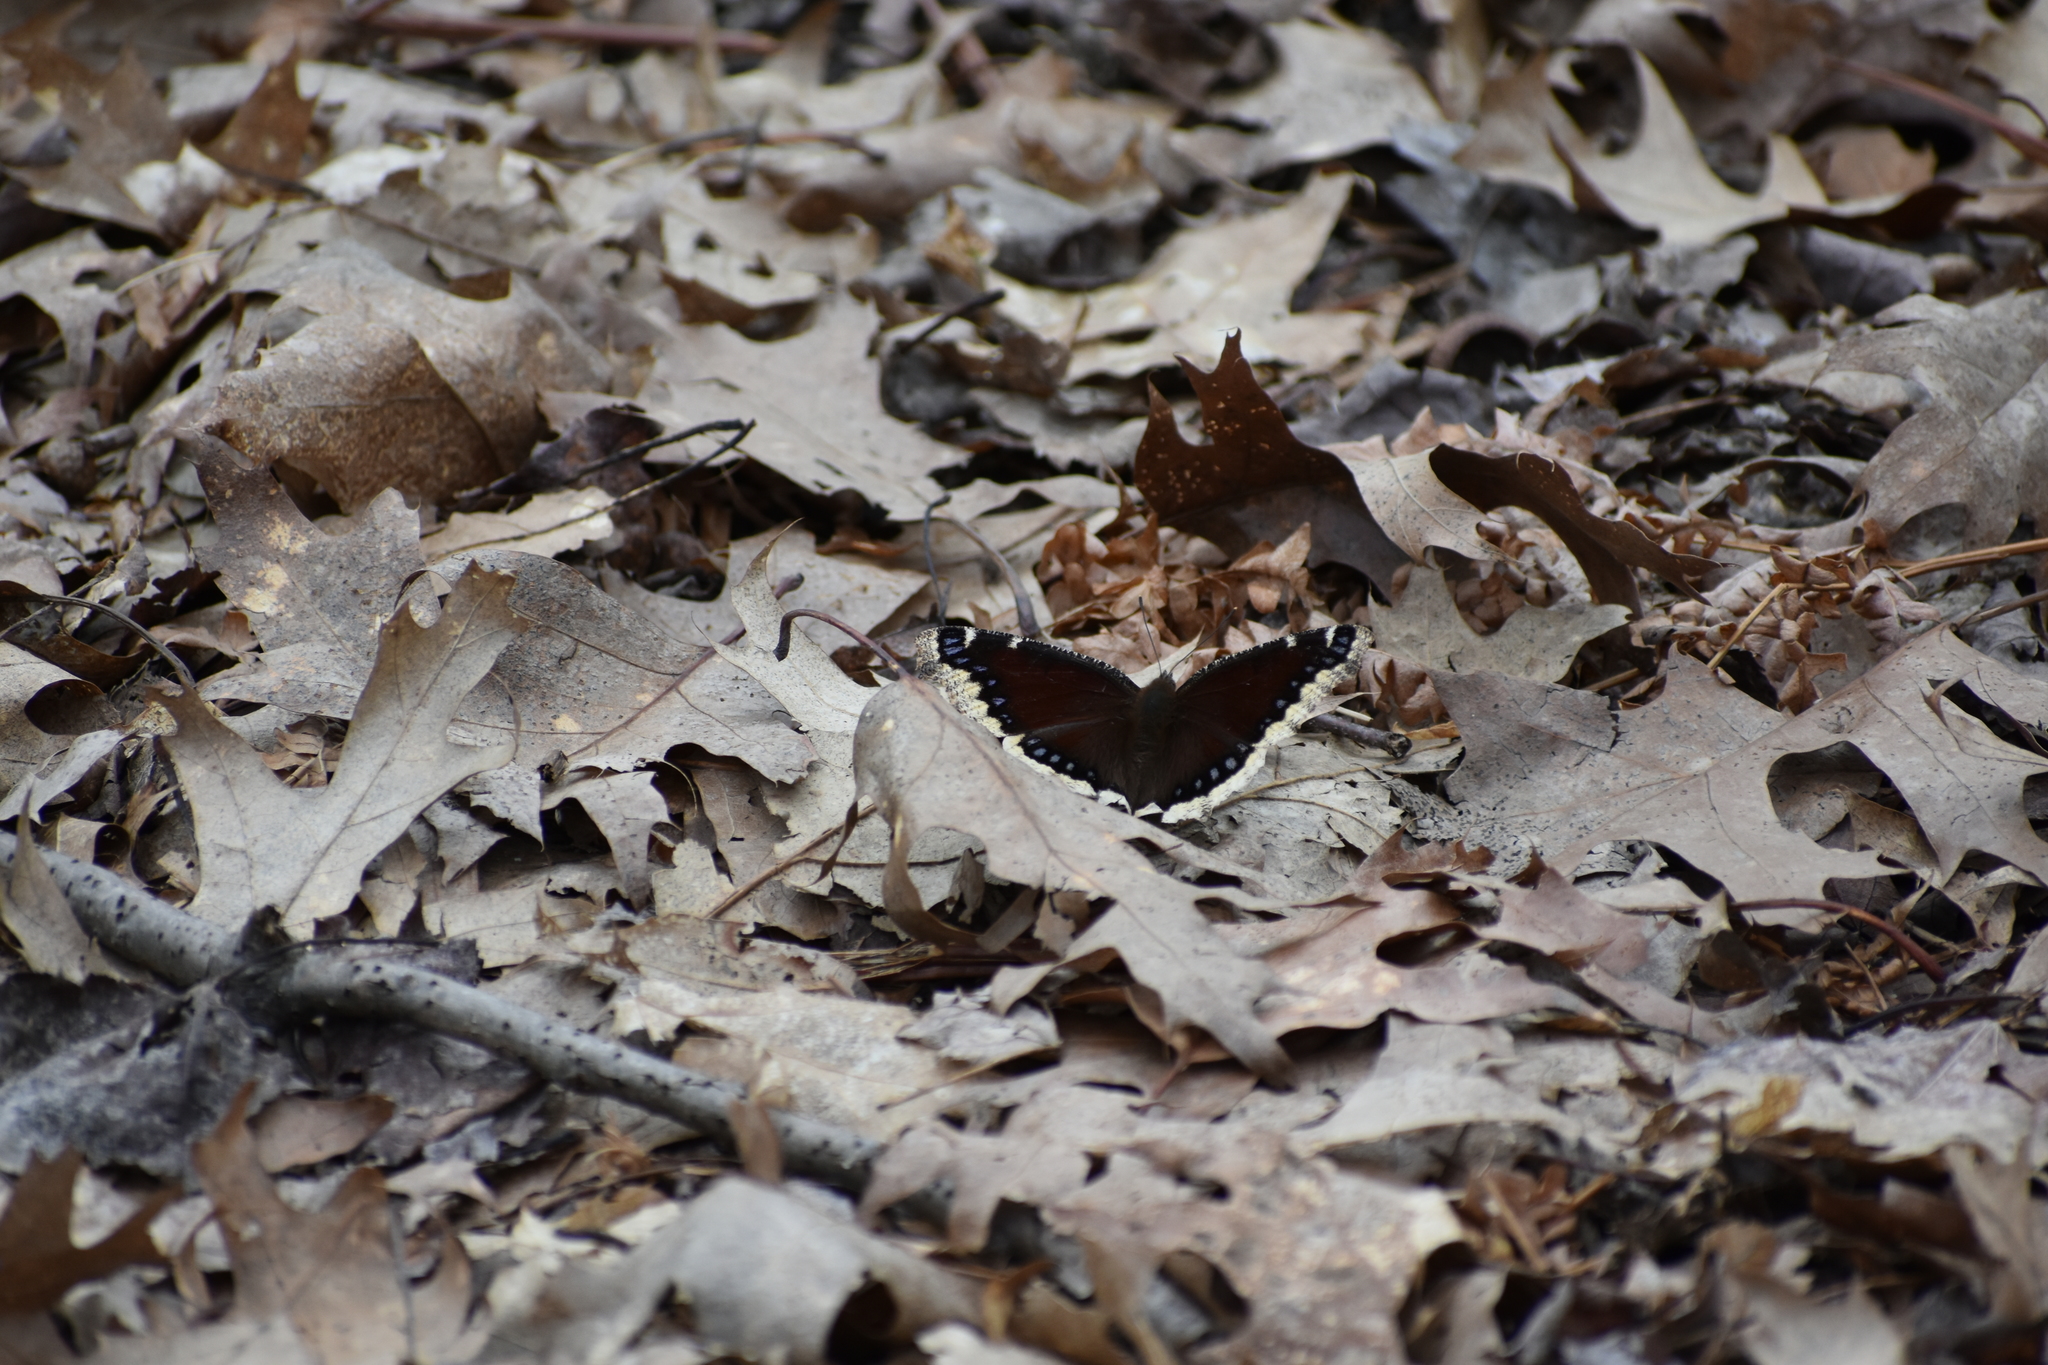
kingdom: Animalia
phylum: Arthropoda
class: Insecta
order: Lepidoptera
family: Nymphalidae
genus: Nymphalis
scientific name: Nymphalis antiopa
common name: Camberwell beauty
